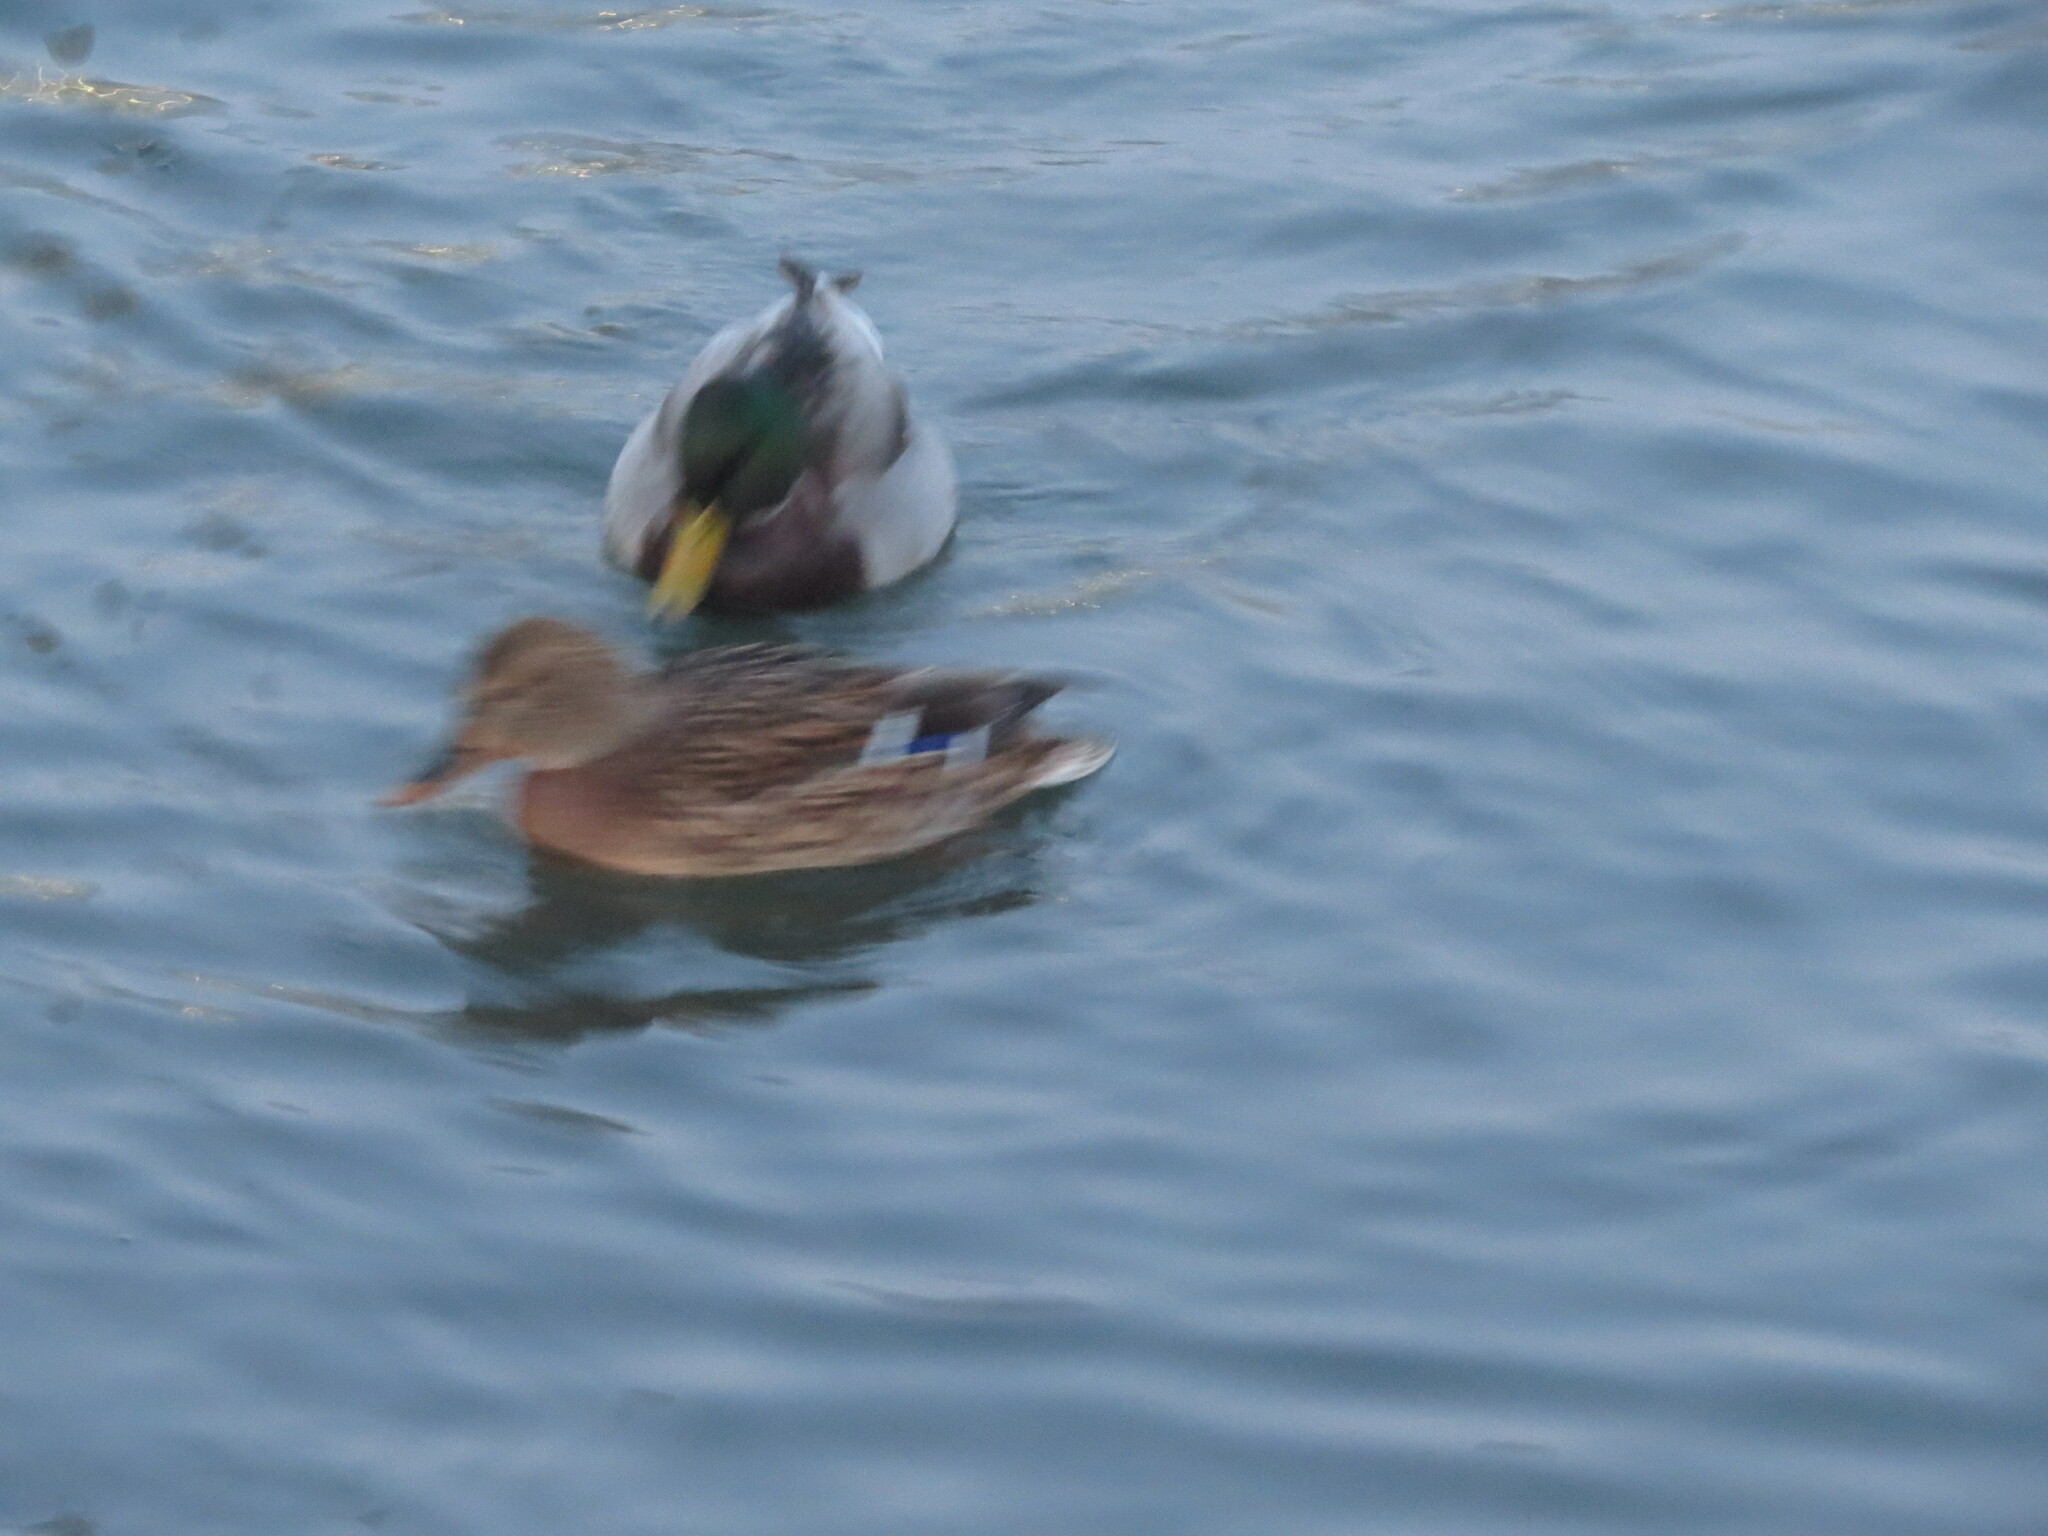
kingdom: Animalia
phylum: Chordata
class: Aves
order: Anseriformes
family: Anatidae
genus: Anas
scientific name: Anas platyrhynchos
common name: Mallard
